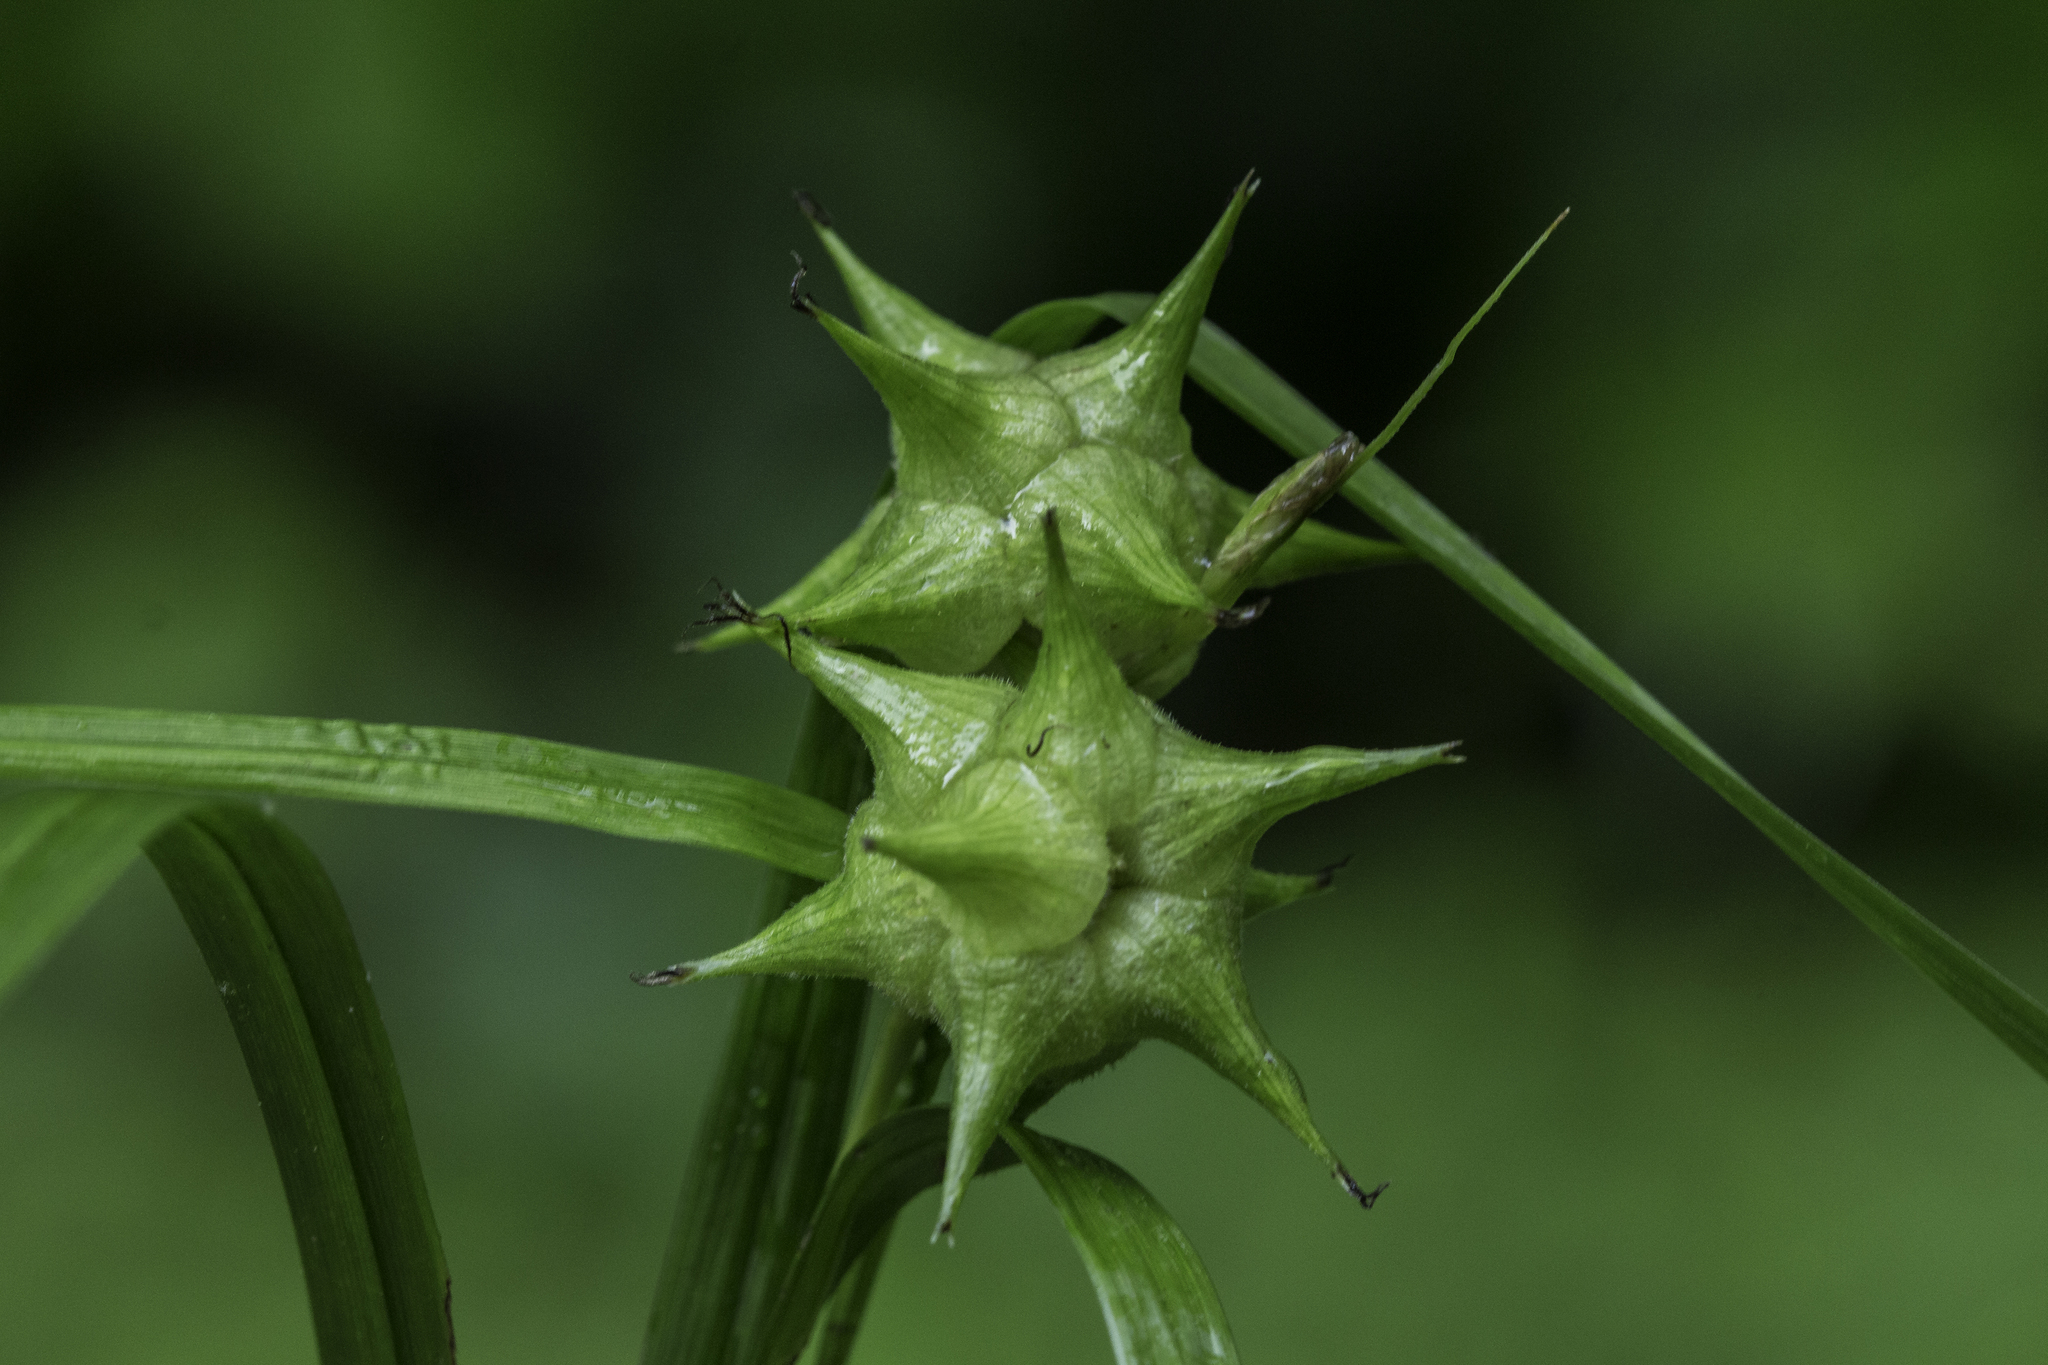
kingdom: Plantae
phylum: Tracheophyta
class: Liliopsida
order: Poales
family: Cyperaceae
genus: Carex
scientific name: Carex grayi
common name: Asa gray's sedge
